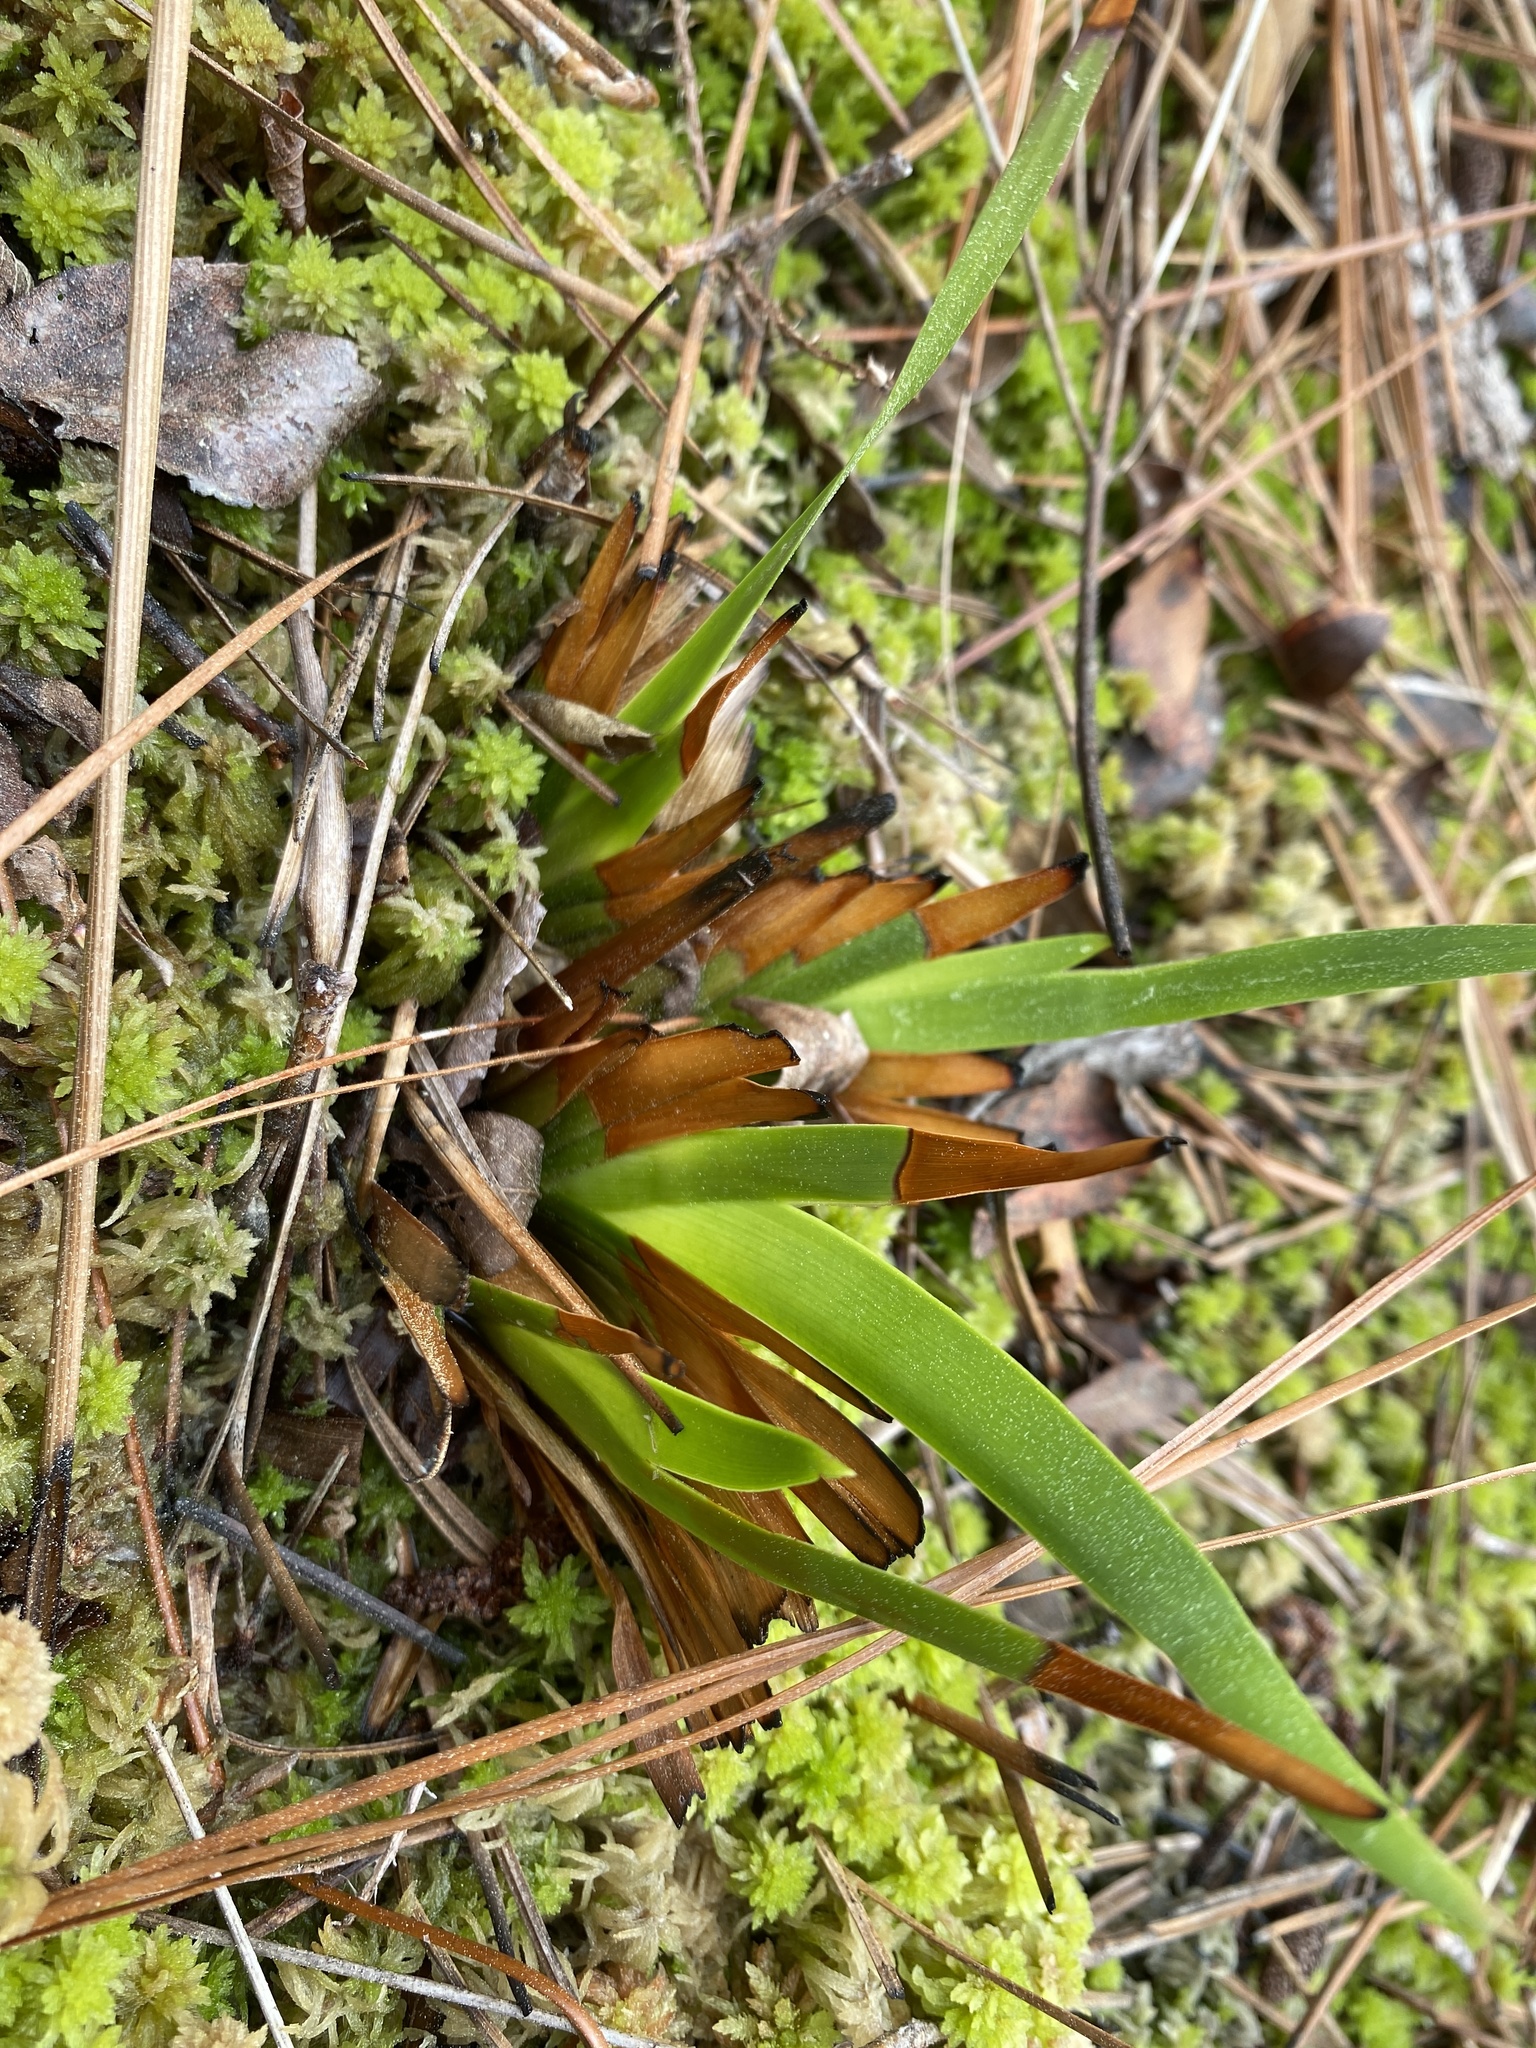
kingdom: Plantae
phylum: Tracheophyta
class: Liliopsida
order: Poales
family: Xyridaceae
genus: Xyris
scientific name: Xyris ambigua
